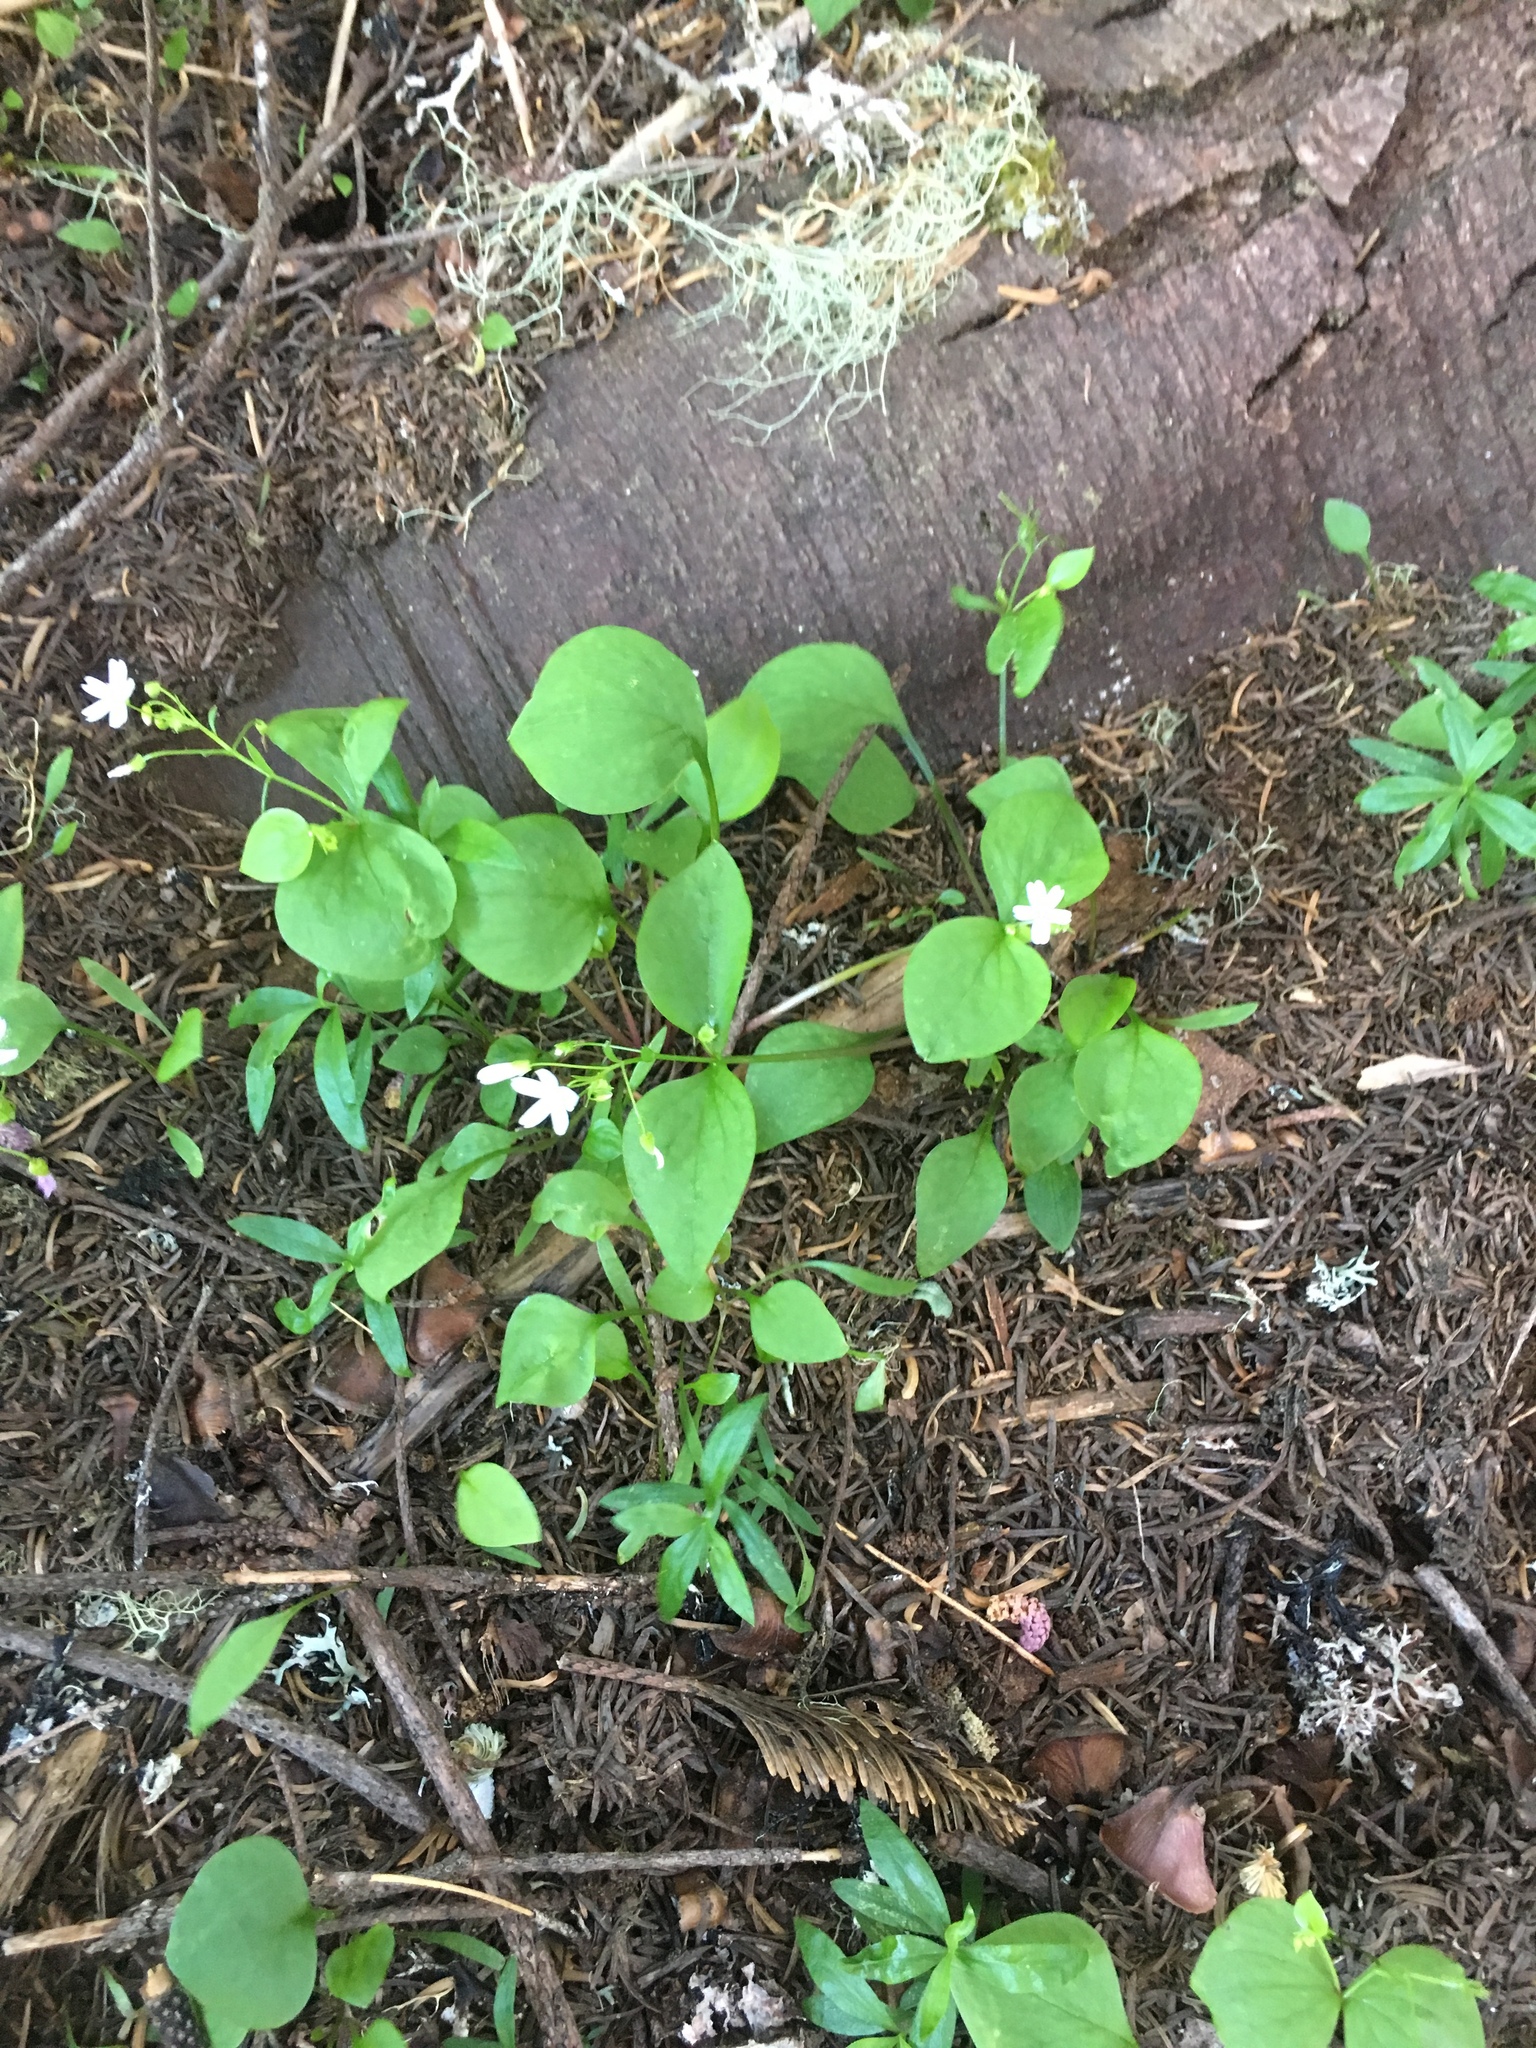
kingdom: Plantae
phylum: Tracheophyta
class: Magnoliopsida
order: Caryophyllales
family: Montiaceae
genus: Claytonia
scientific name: Claytonia sibirica
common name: Pink purslane
